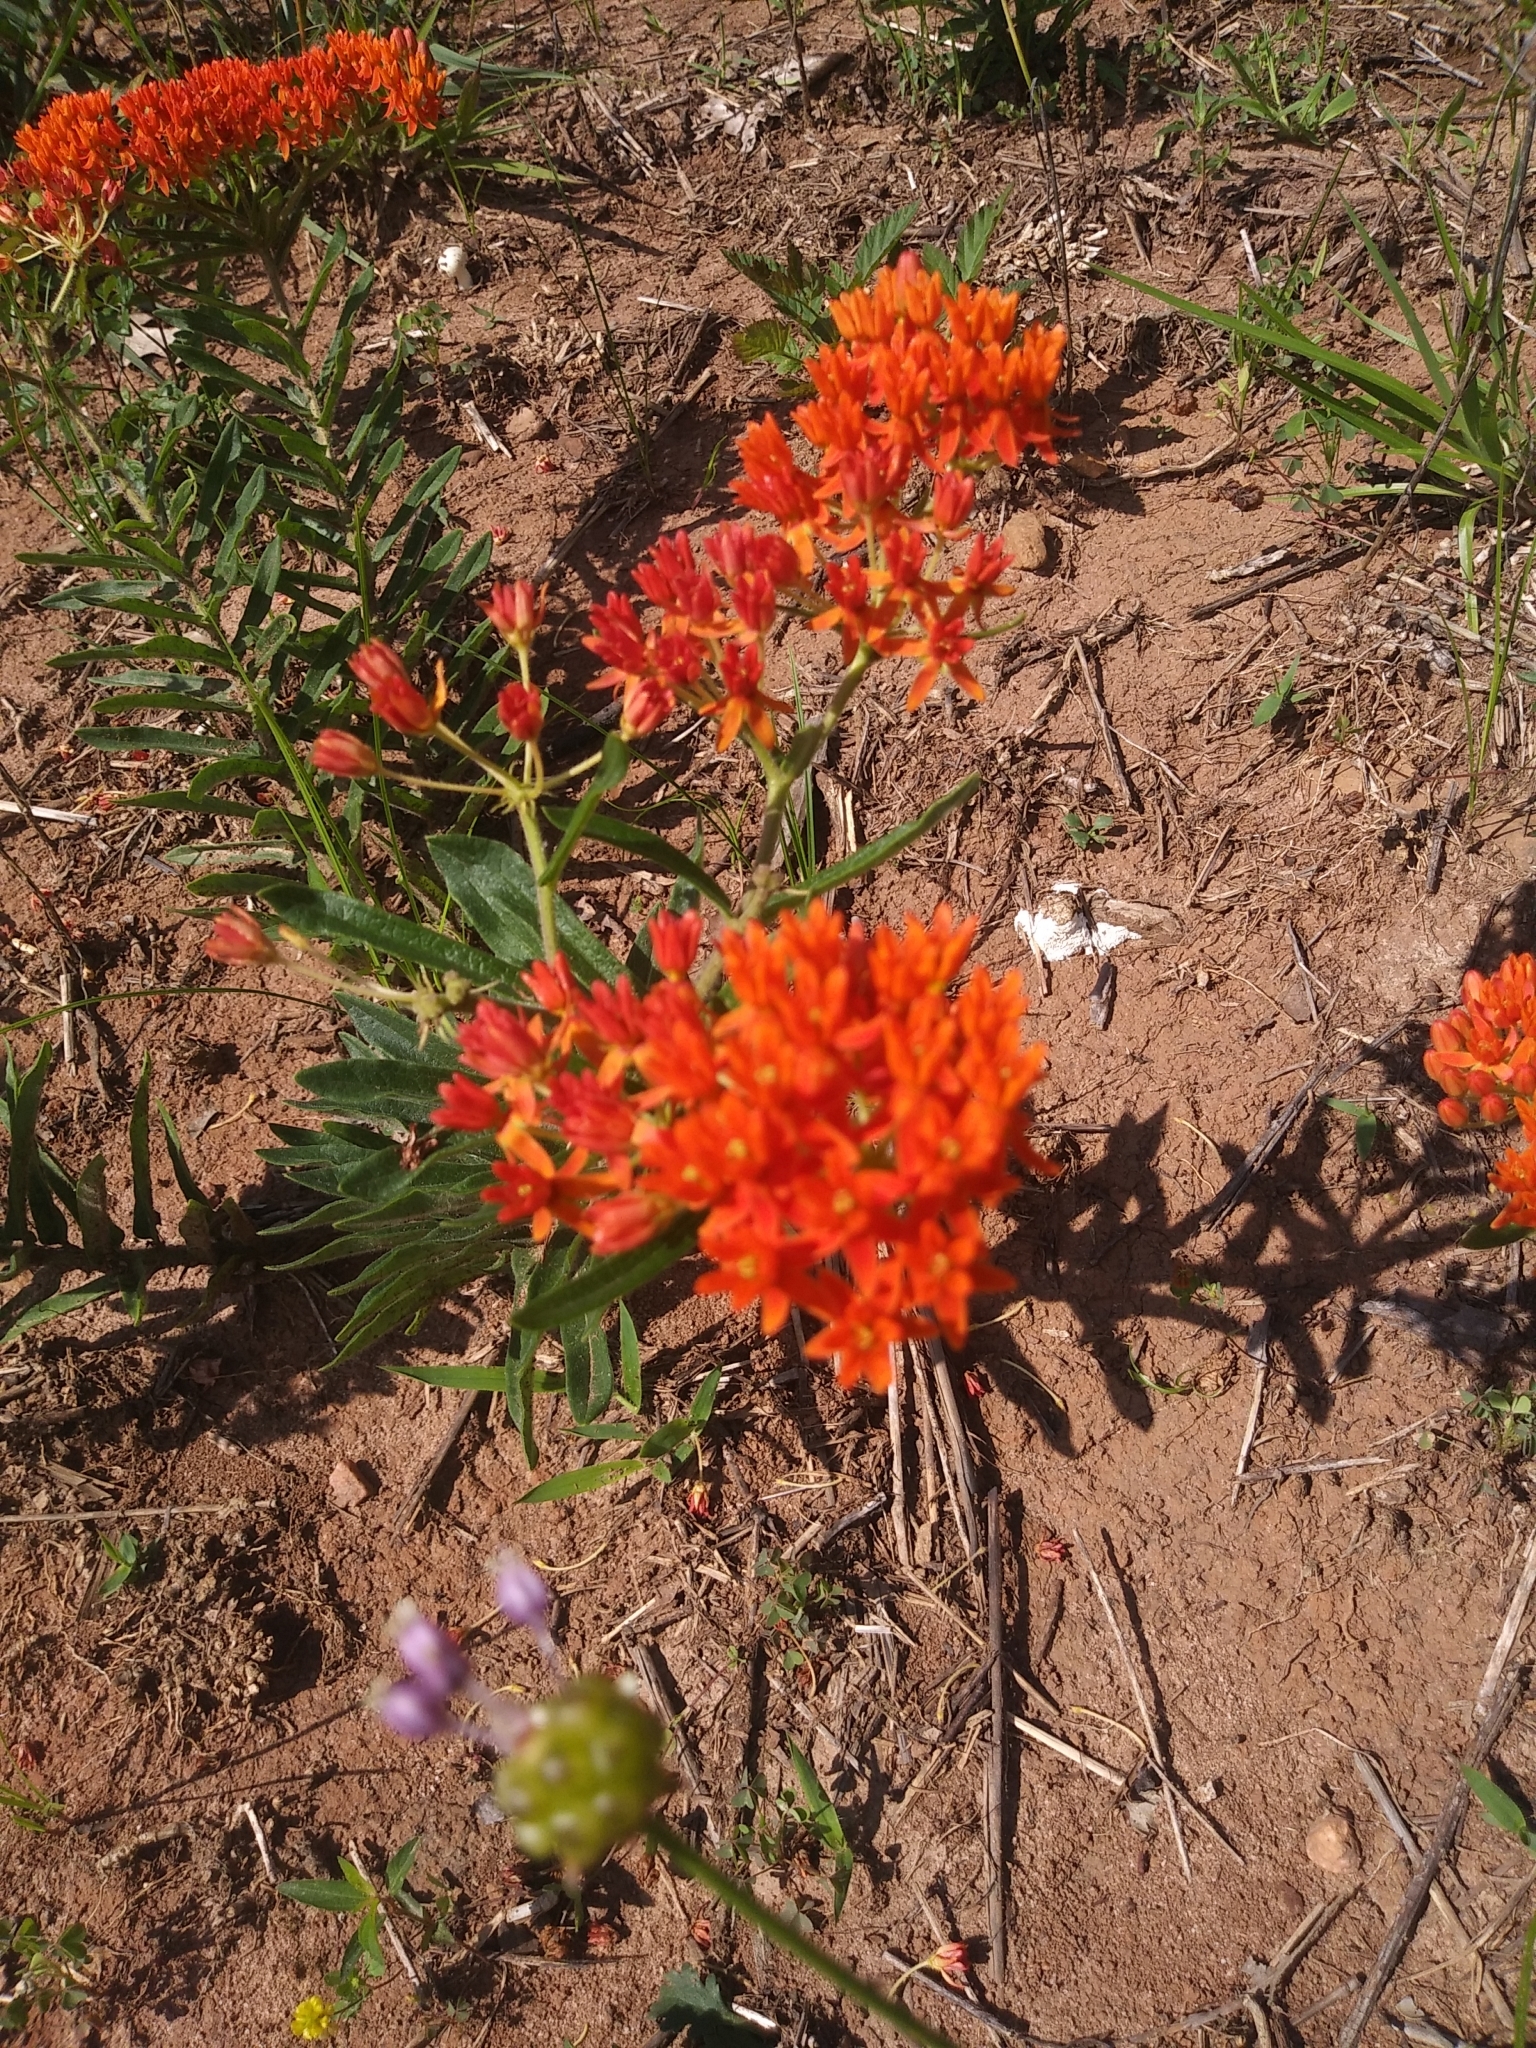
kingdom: Plantae
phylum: Tracheophyta
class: Magnoliopsida
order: Gentianales
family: Apocynaceae
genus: Asclepias
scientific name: Asclepias tuberosa
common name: Butterfly milkweed
